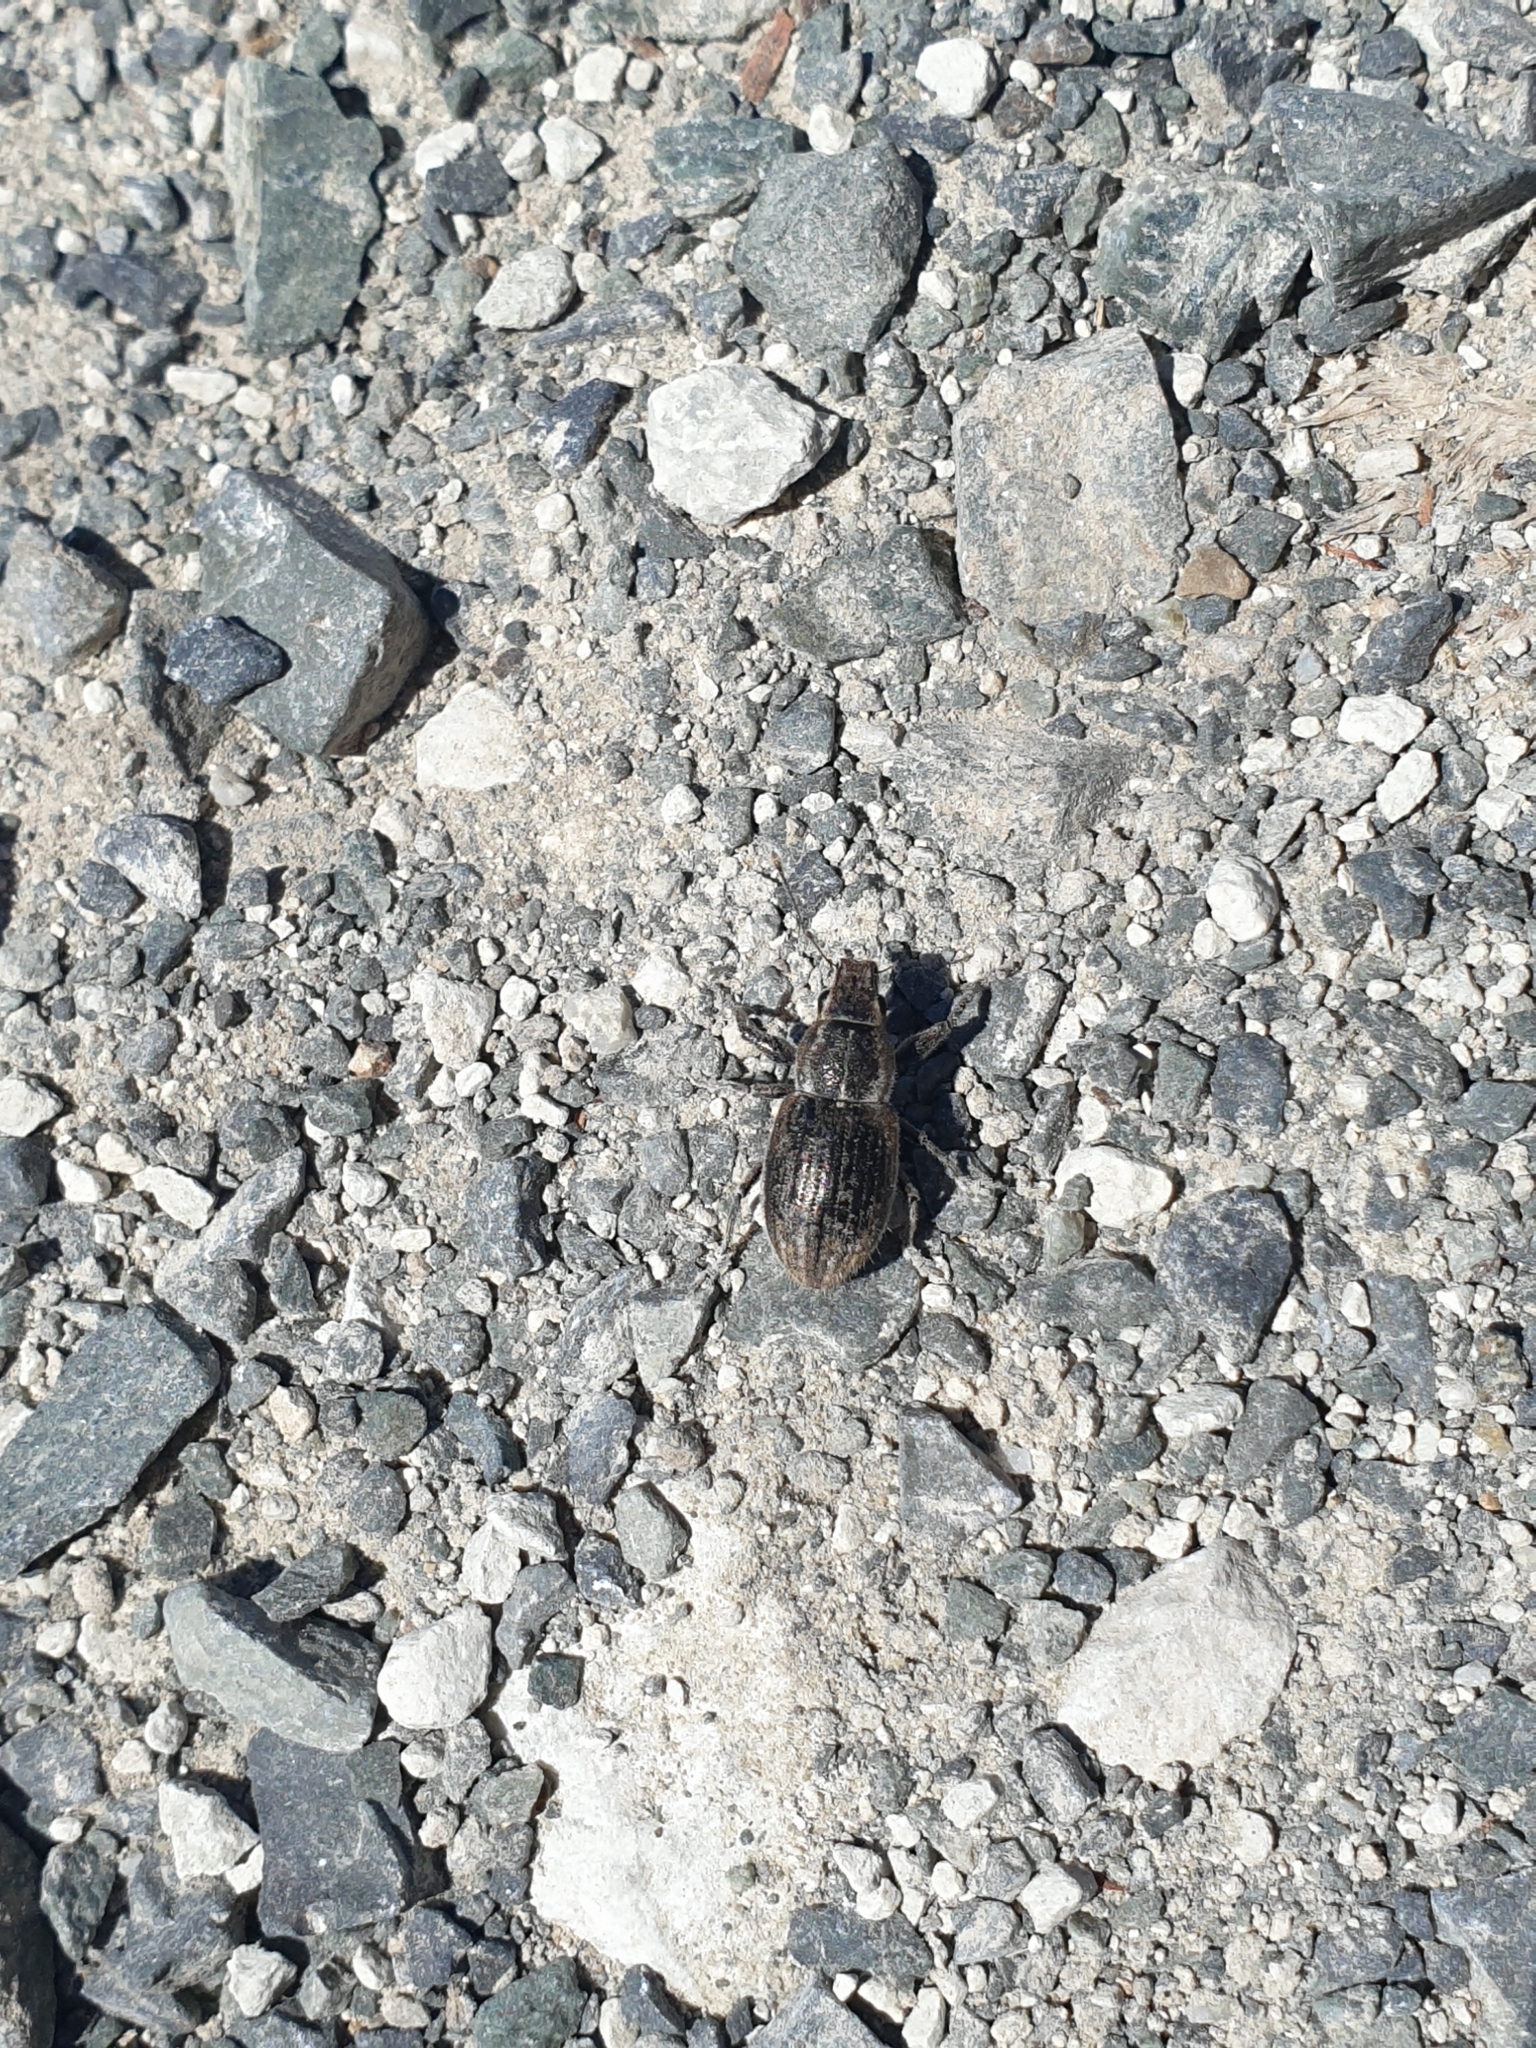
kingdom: Animalia
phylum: Arthropoda
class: Insecta
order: Coleoptera
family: Curculionidae
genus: Naupactus
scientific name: Naupactus leucoloma
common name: Whitefringed beetle
